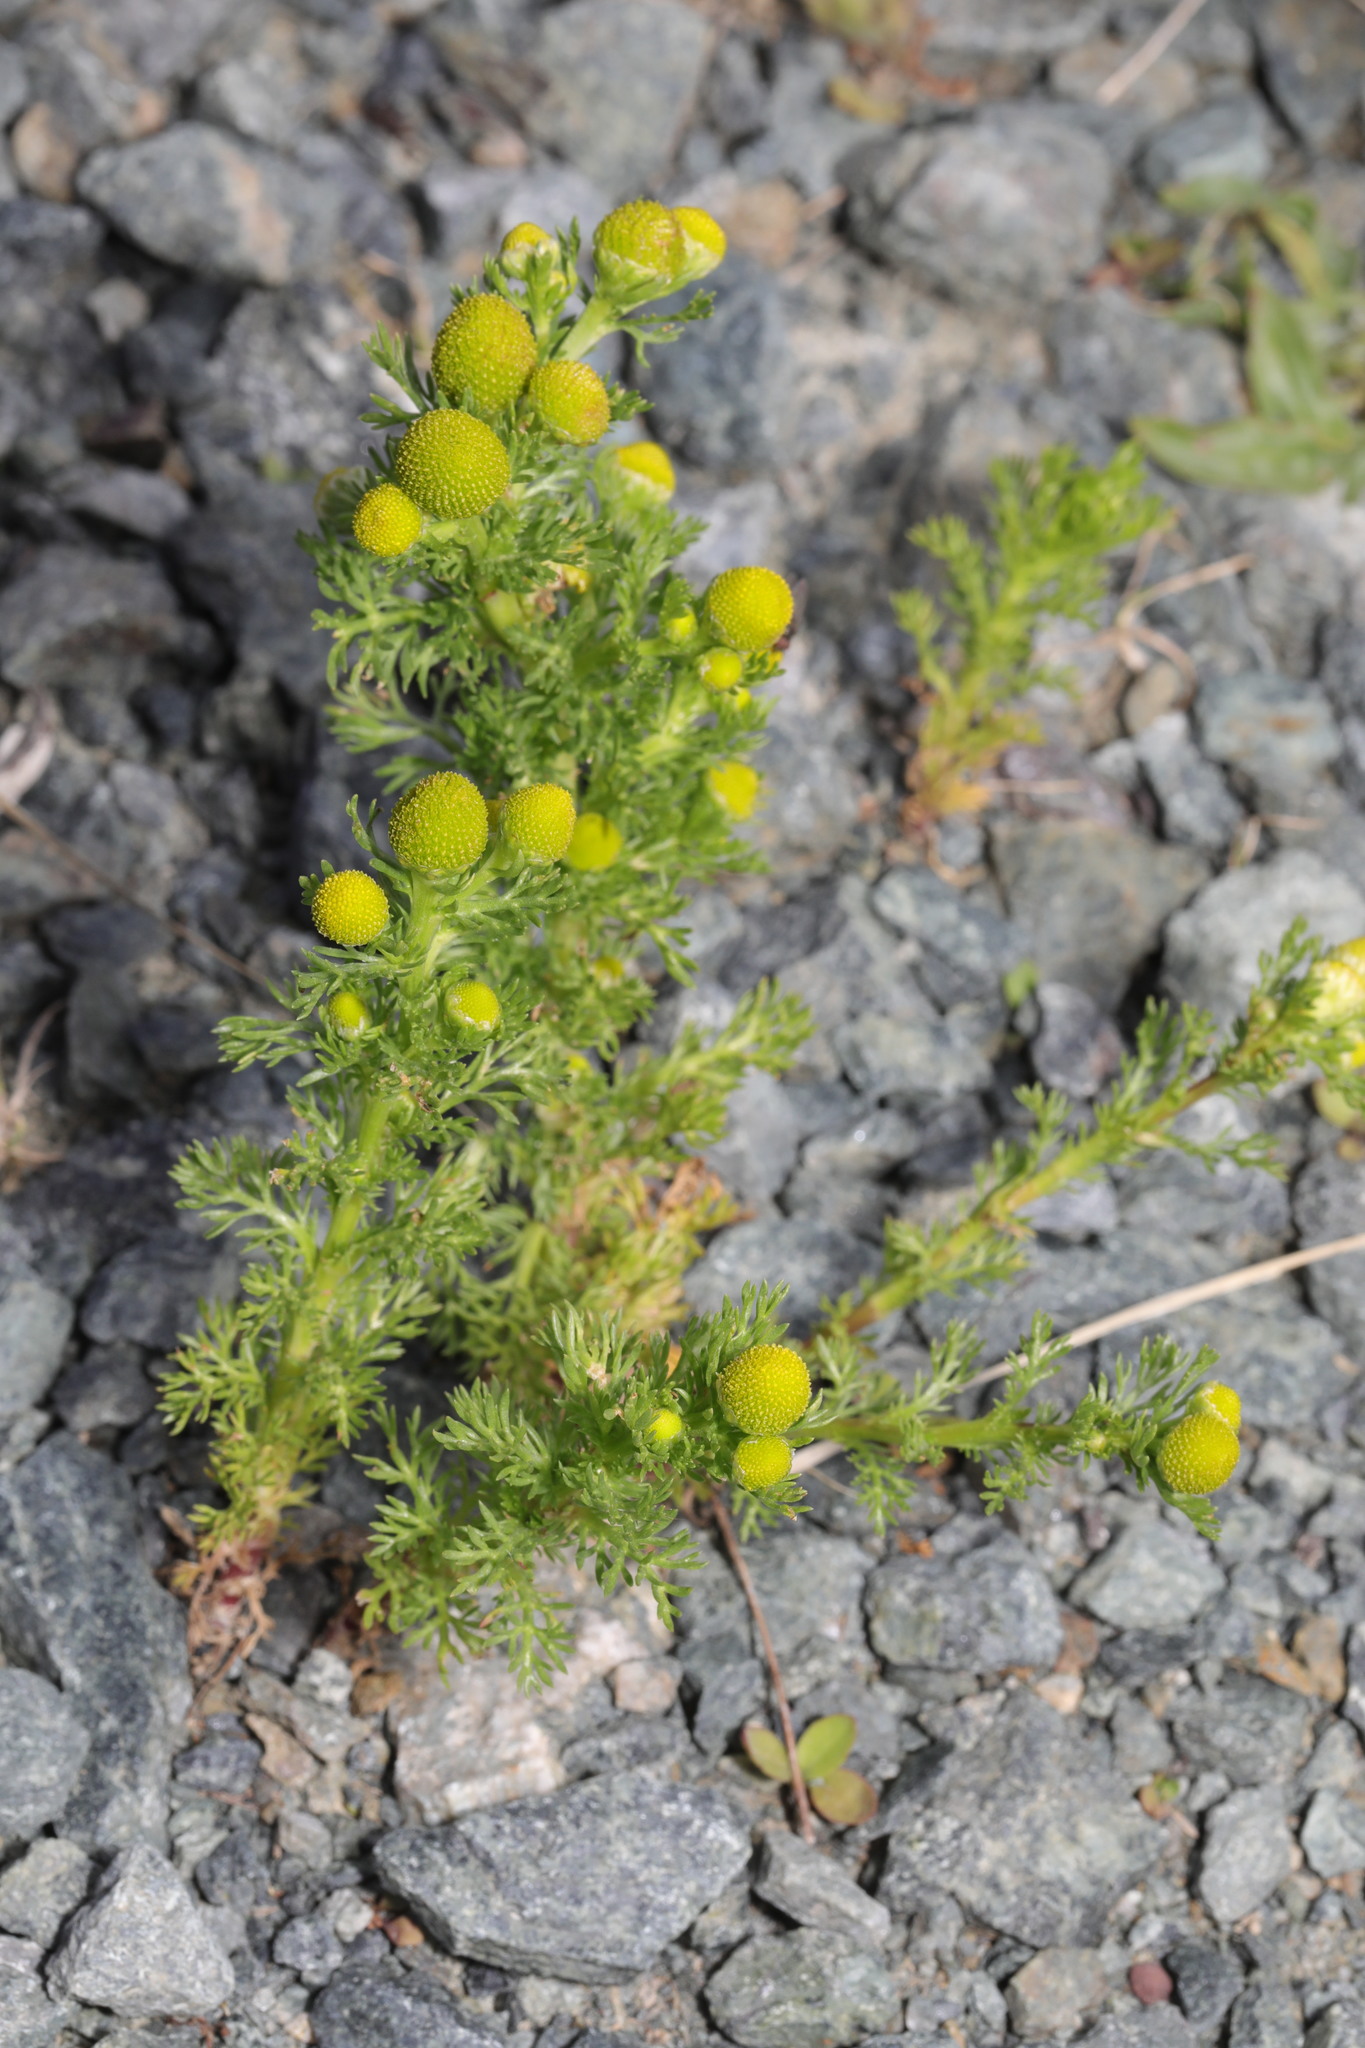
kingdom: Plantae
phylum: Tracheophyta
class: Magnoliopsida
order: Asterales
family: Asteraceae
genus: Matricaria
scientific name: Matricaria discoidea
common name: Disc mayweed
